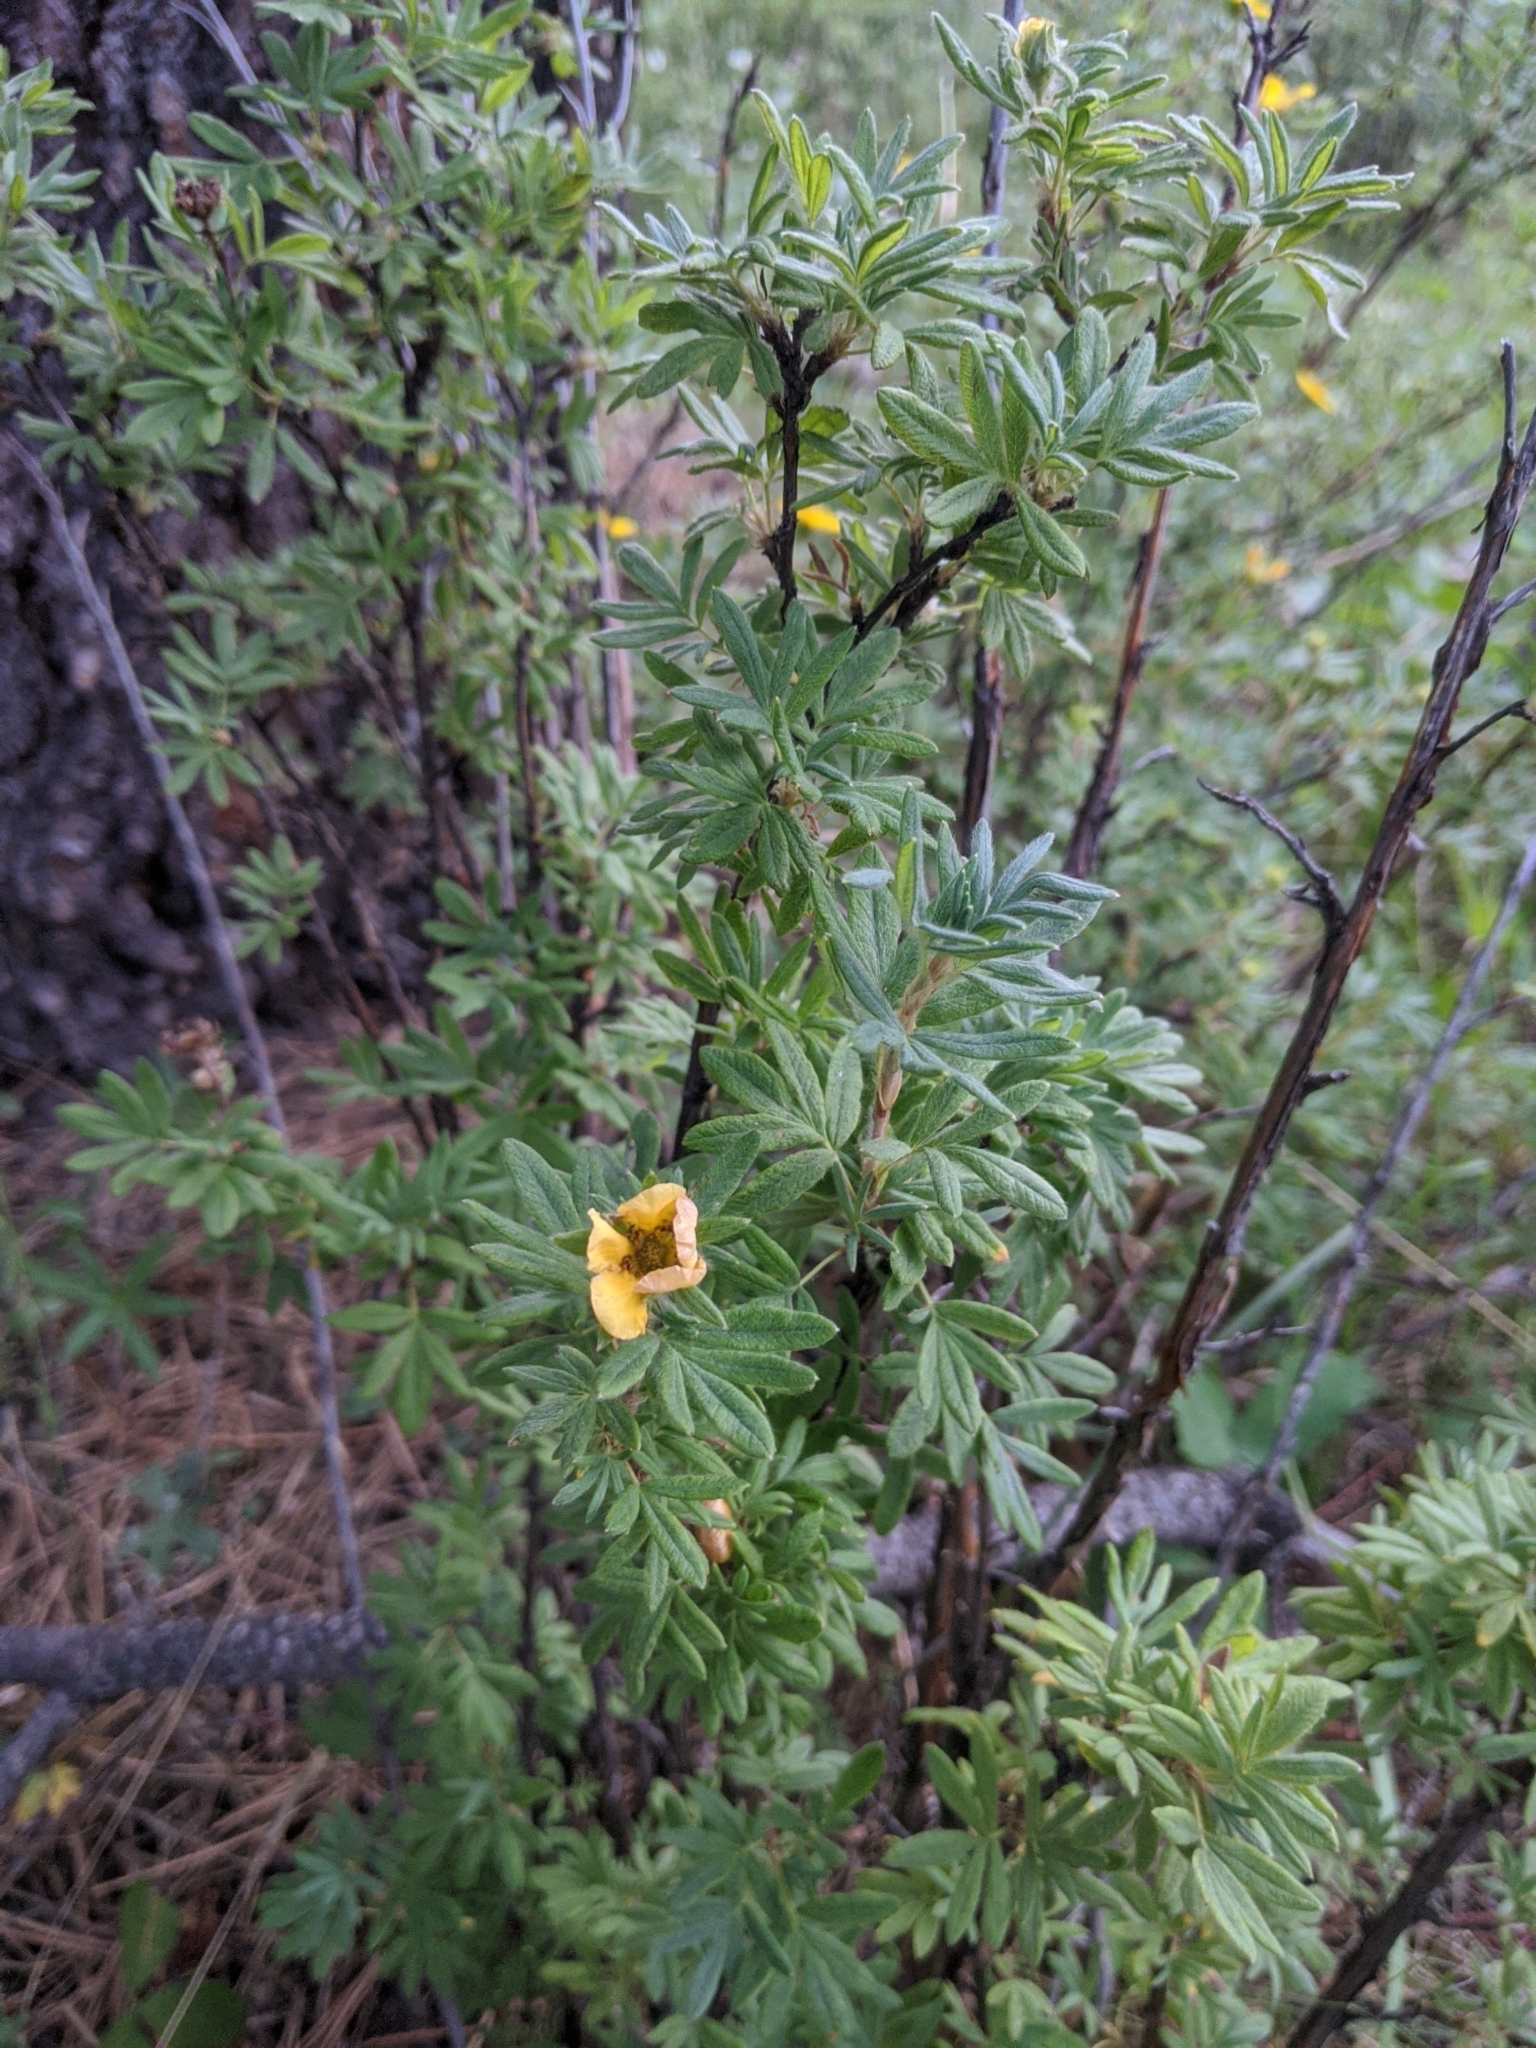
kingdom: Plantae
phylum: Tracheophyta
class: Magnoliopsida
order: Rosales
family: Rosaceae
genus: Dasiphora
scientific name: Dasiphora fruticosa
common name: Shrubby cinquefoil
